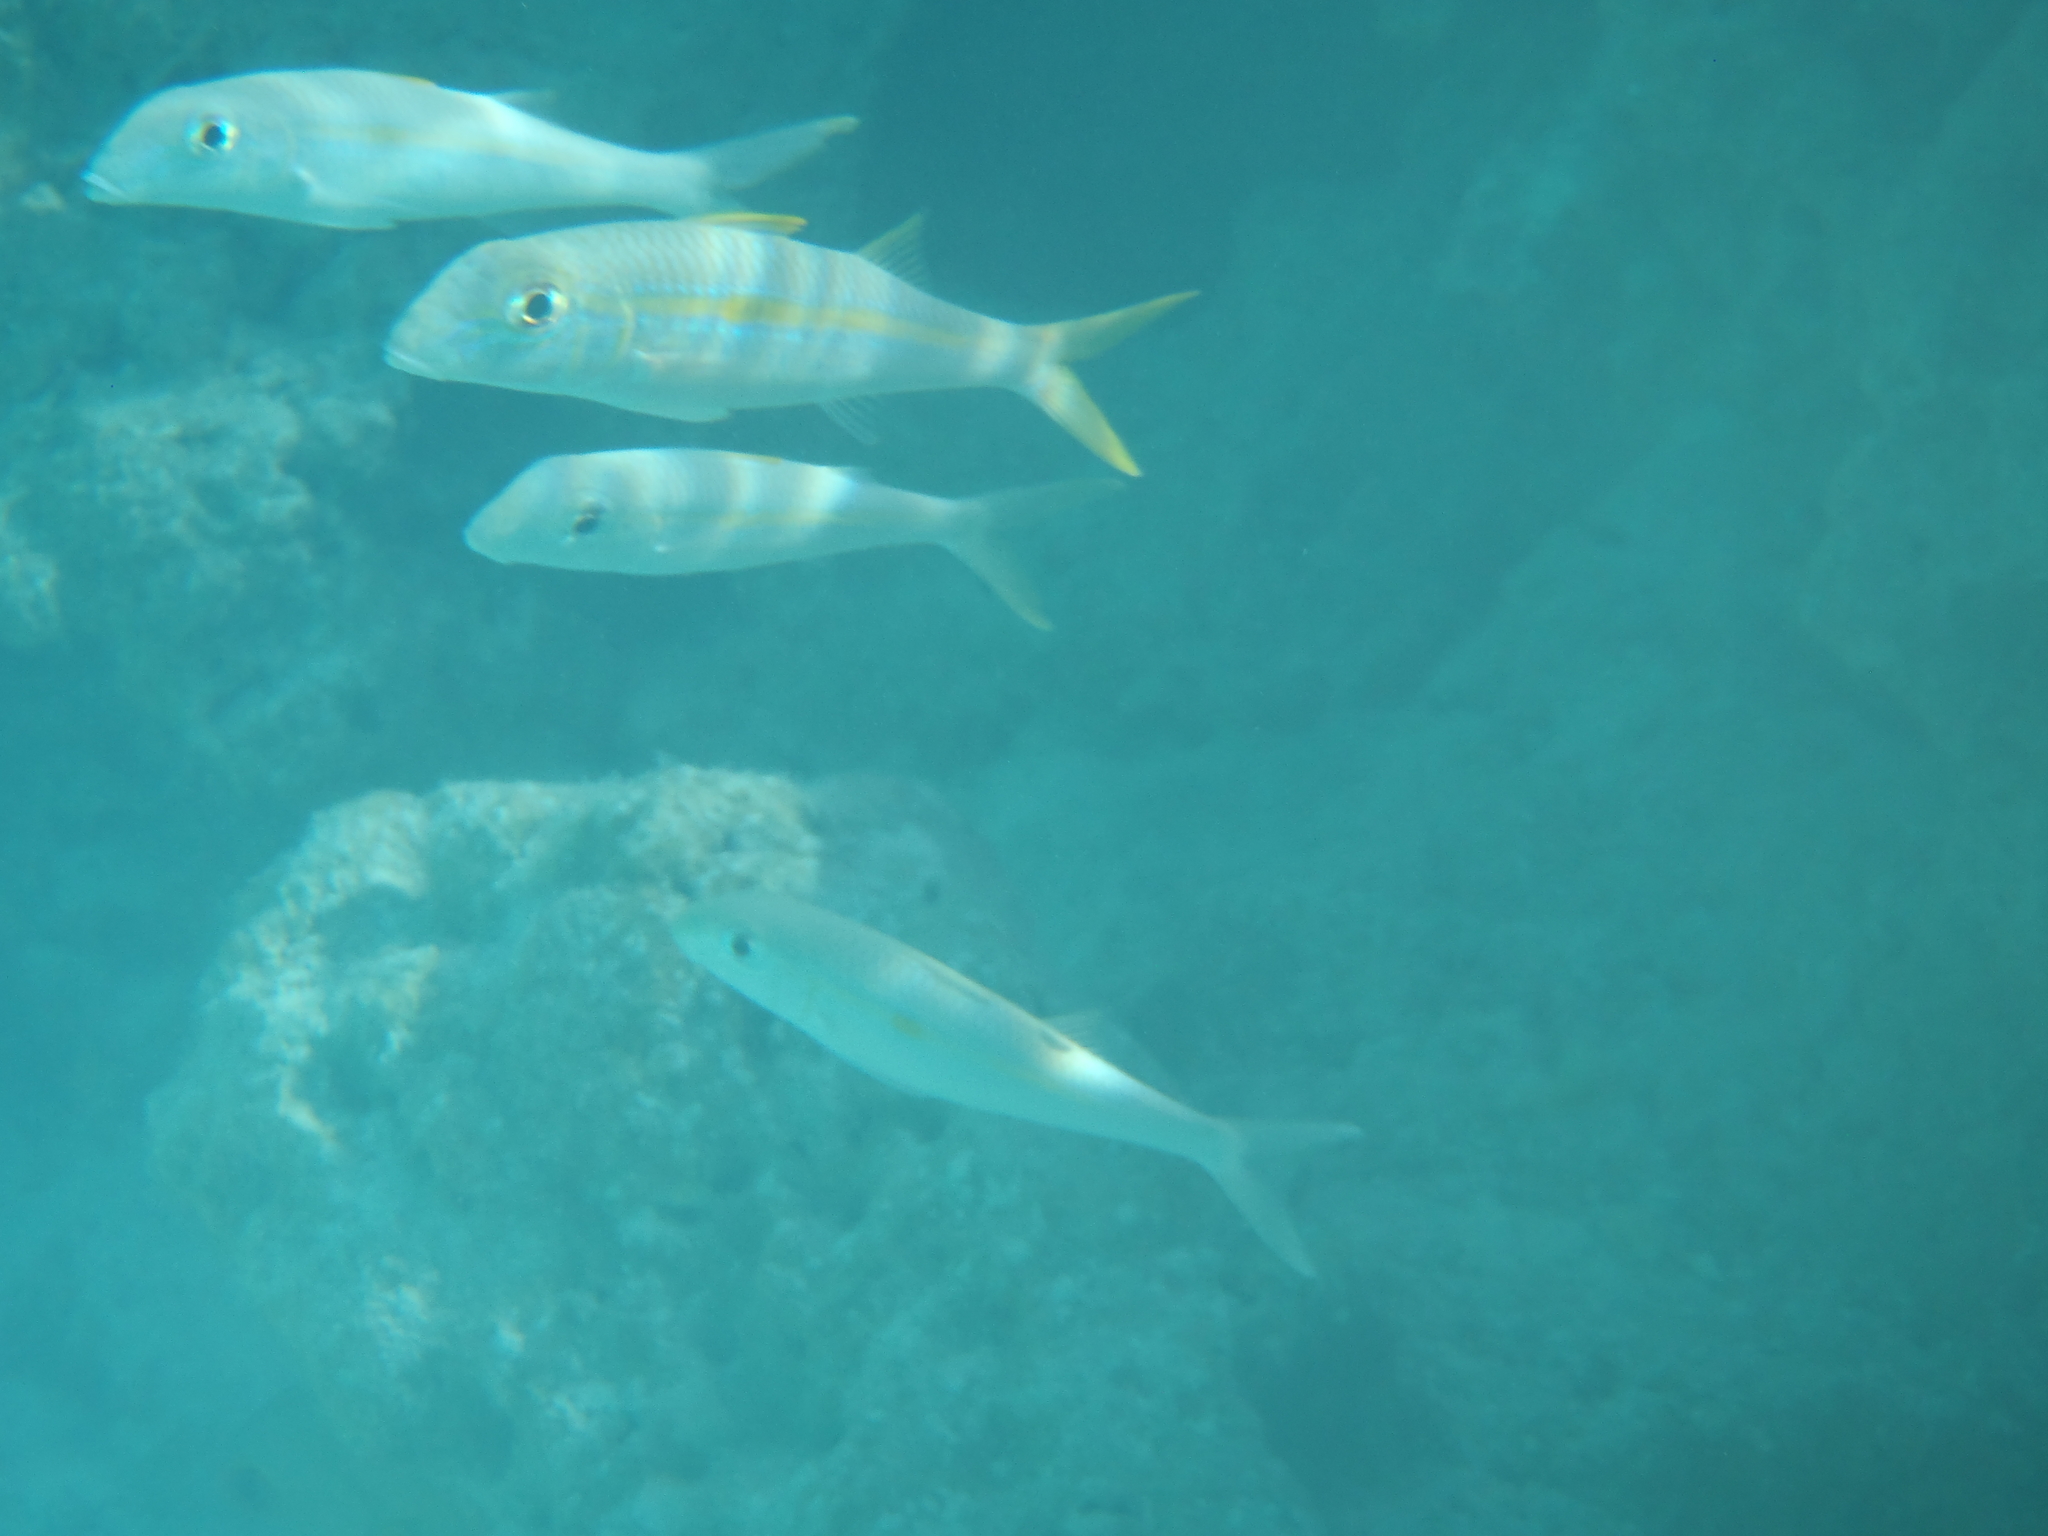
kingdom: Animalia
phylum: Chordata
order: Perciformes
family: Mullidae
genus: Mulloidichthys
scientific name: Mulloidichthys vanicolensis
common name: Yellowfin goatfish
